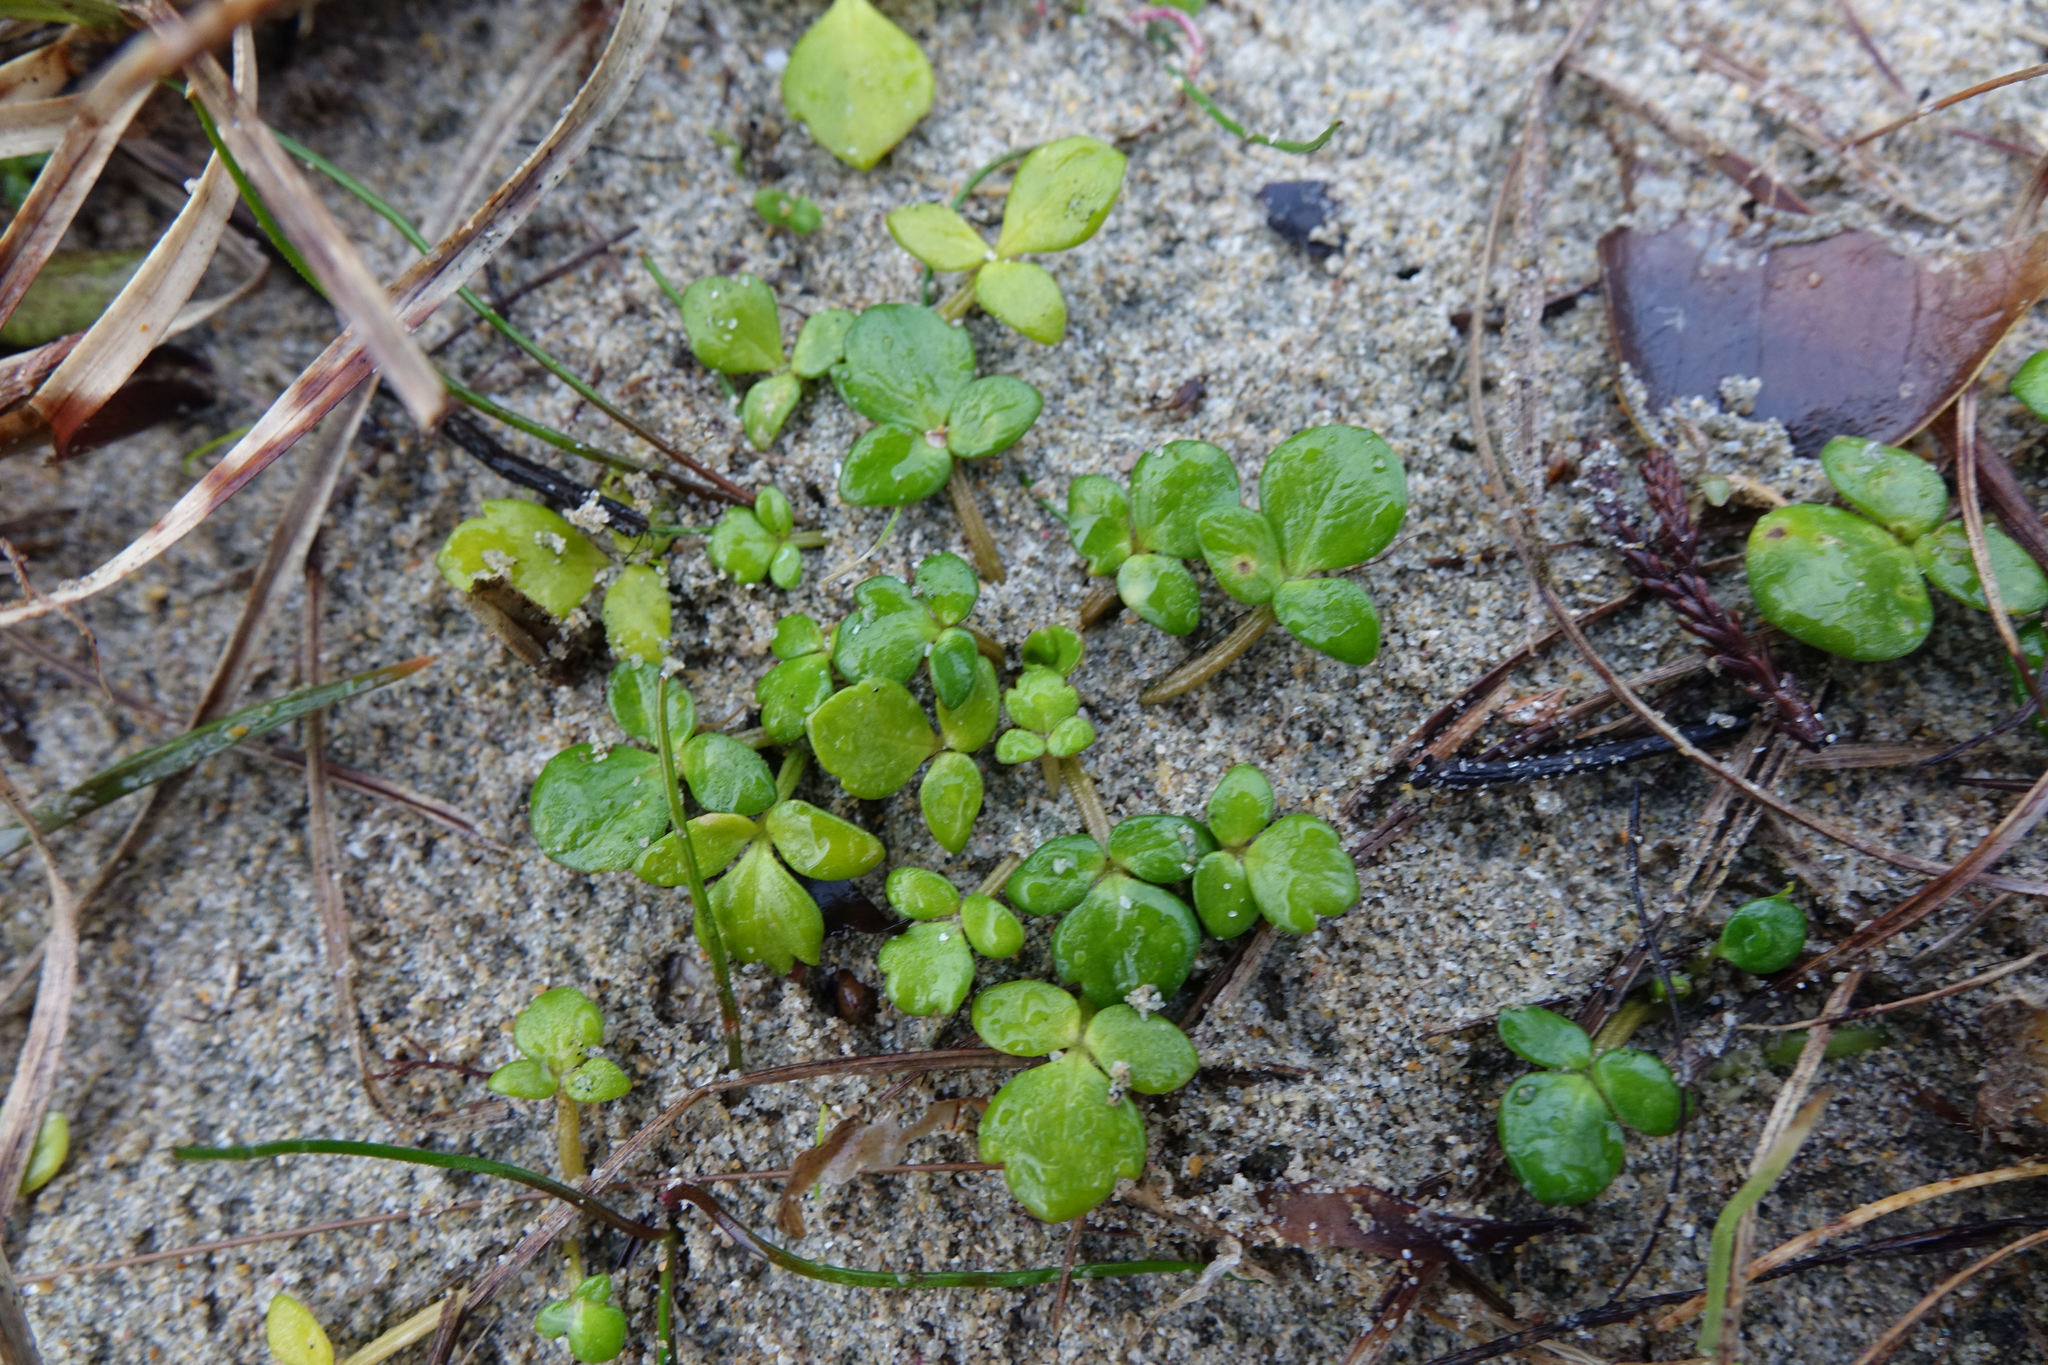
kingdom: Plantae
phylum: Tracheophyta
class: Magnoliopsida
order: Ranunculales
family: Ranunculaceae
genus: Ranunculus
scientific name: Ranunculus acaulis
